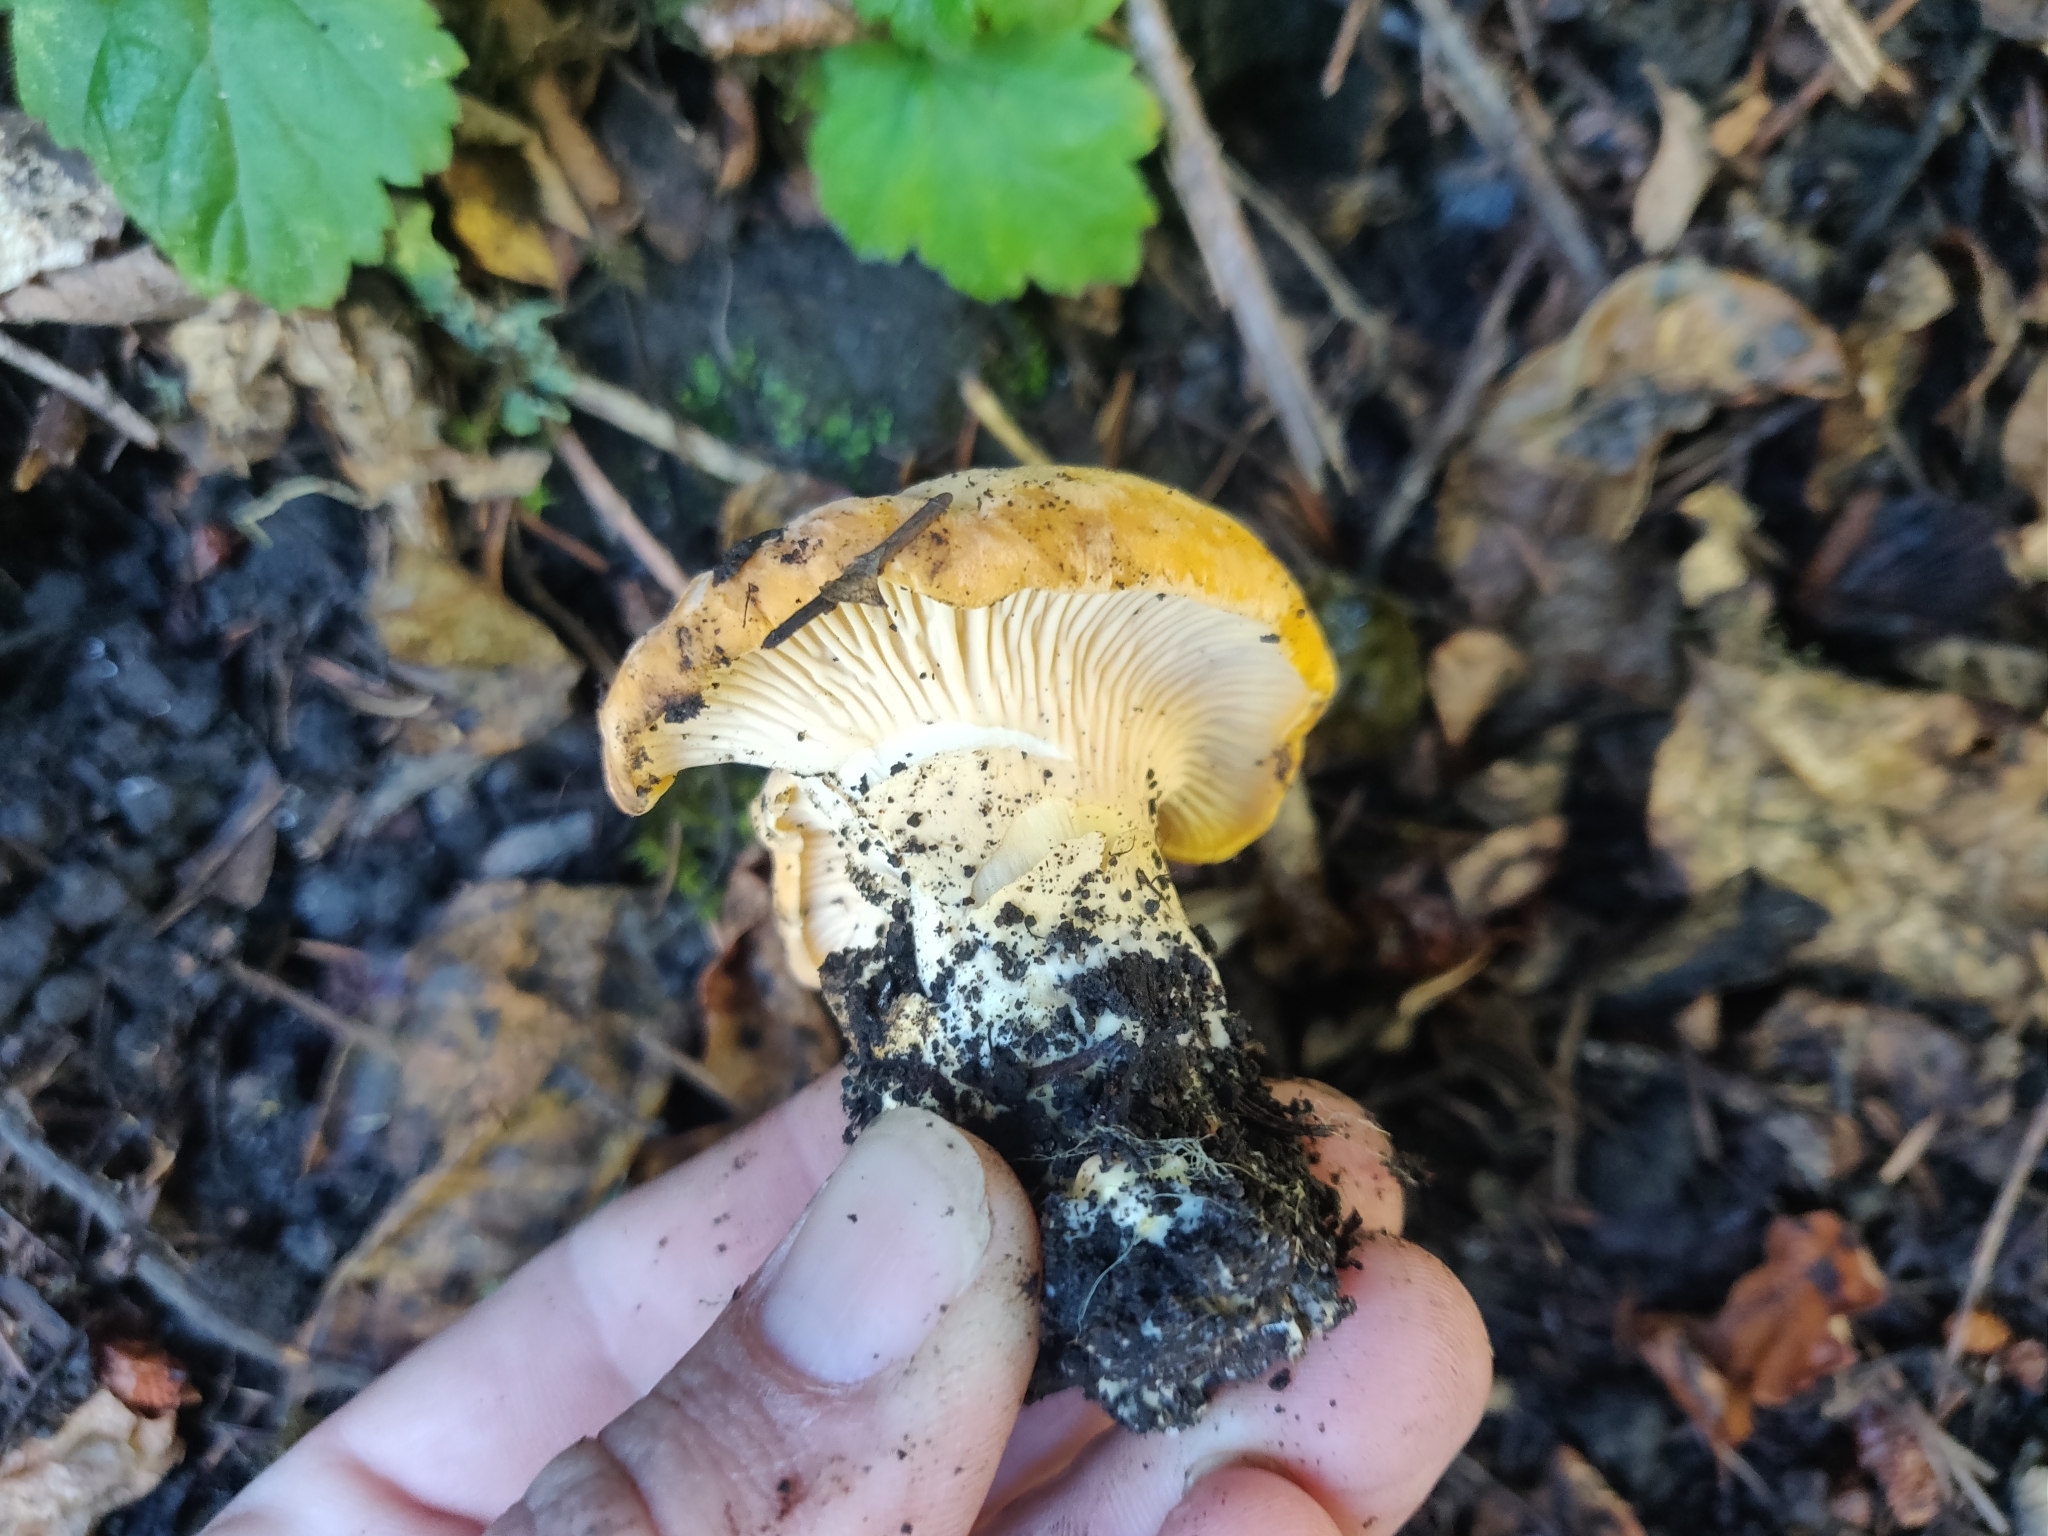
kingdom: Fungi
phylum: Basidiomycota
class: Agaricomycetes
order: Cantharellales
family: Hydnaceae
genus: Cantharellus
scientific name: Cantharellus californicus
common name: California golden chanterelle
